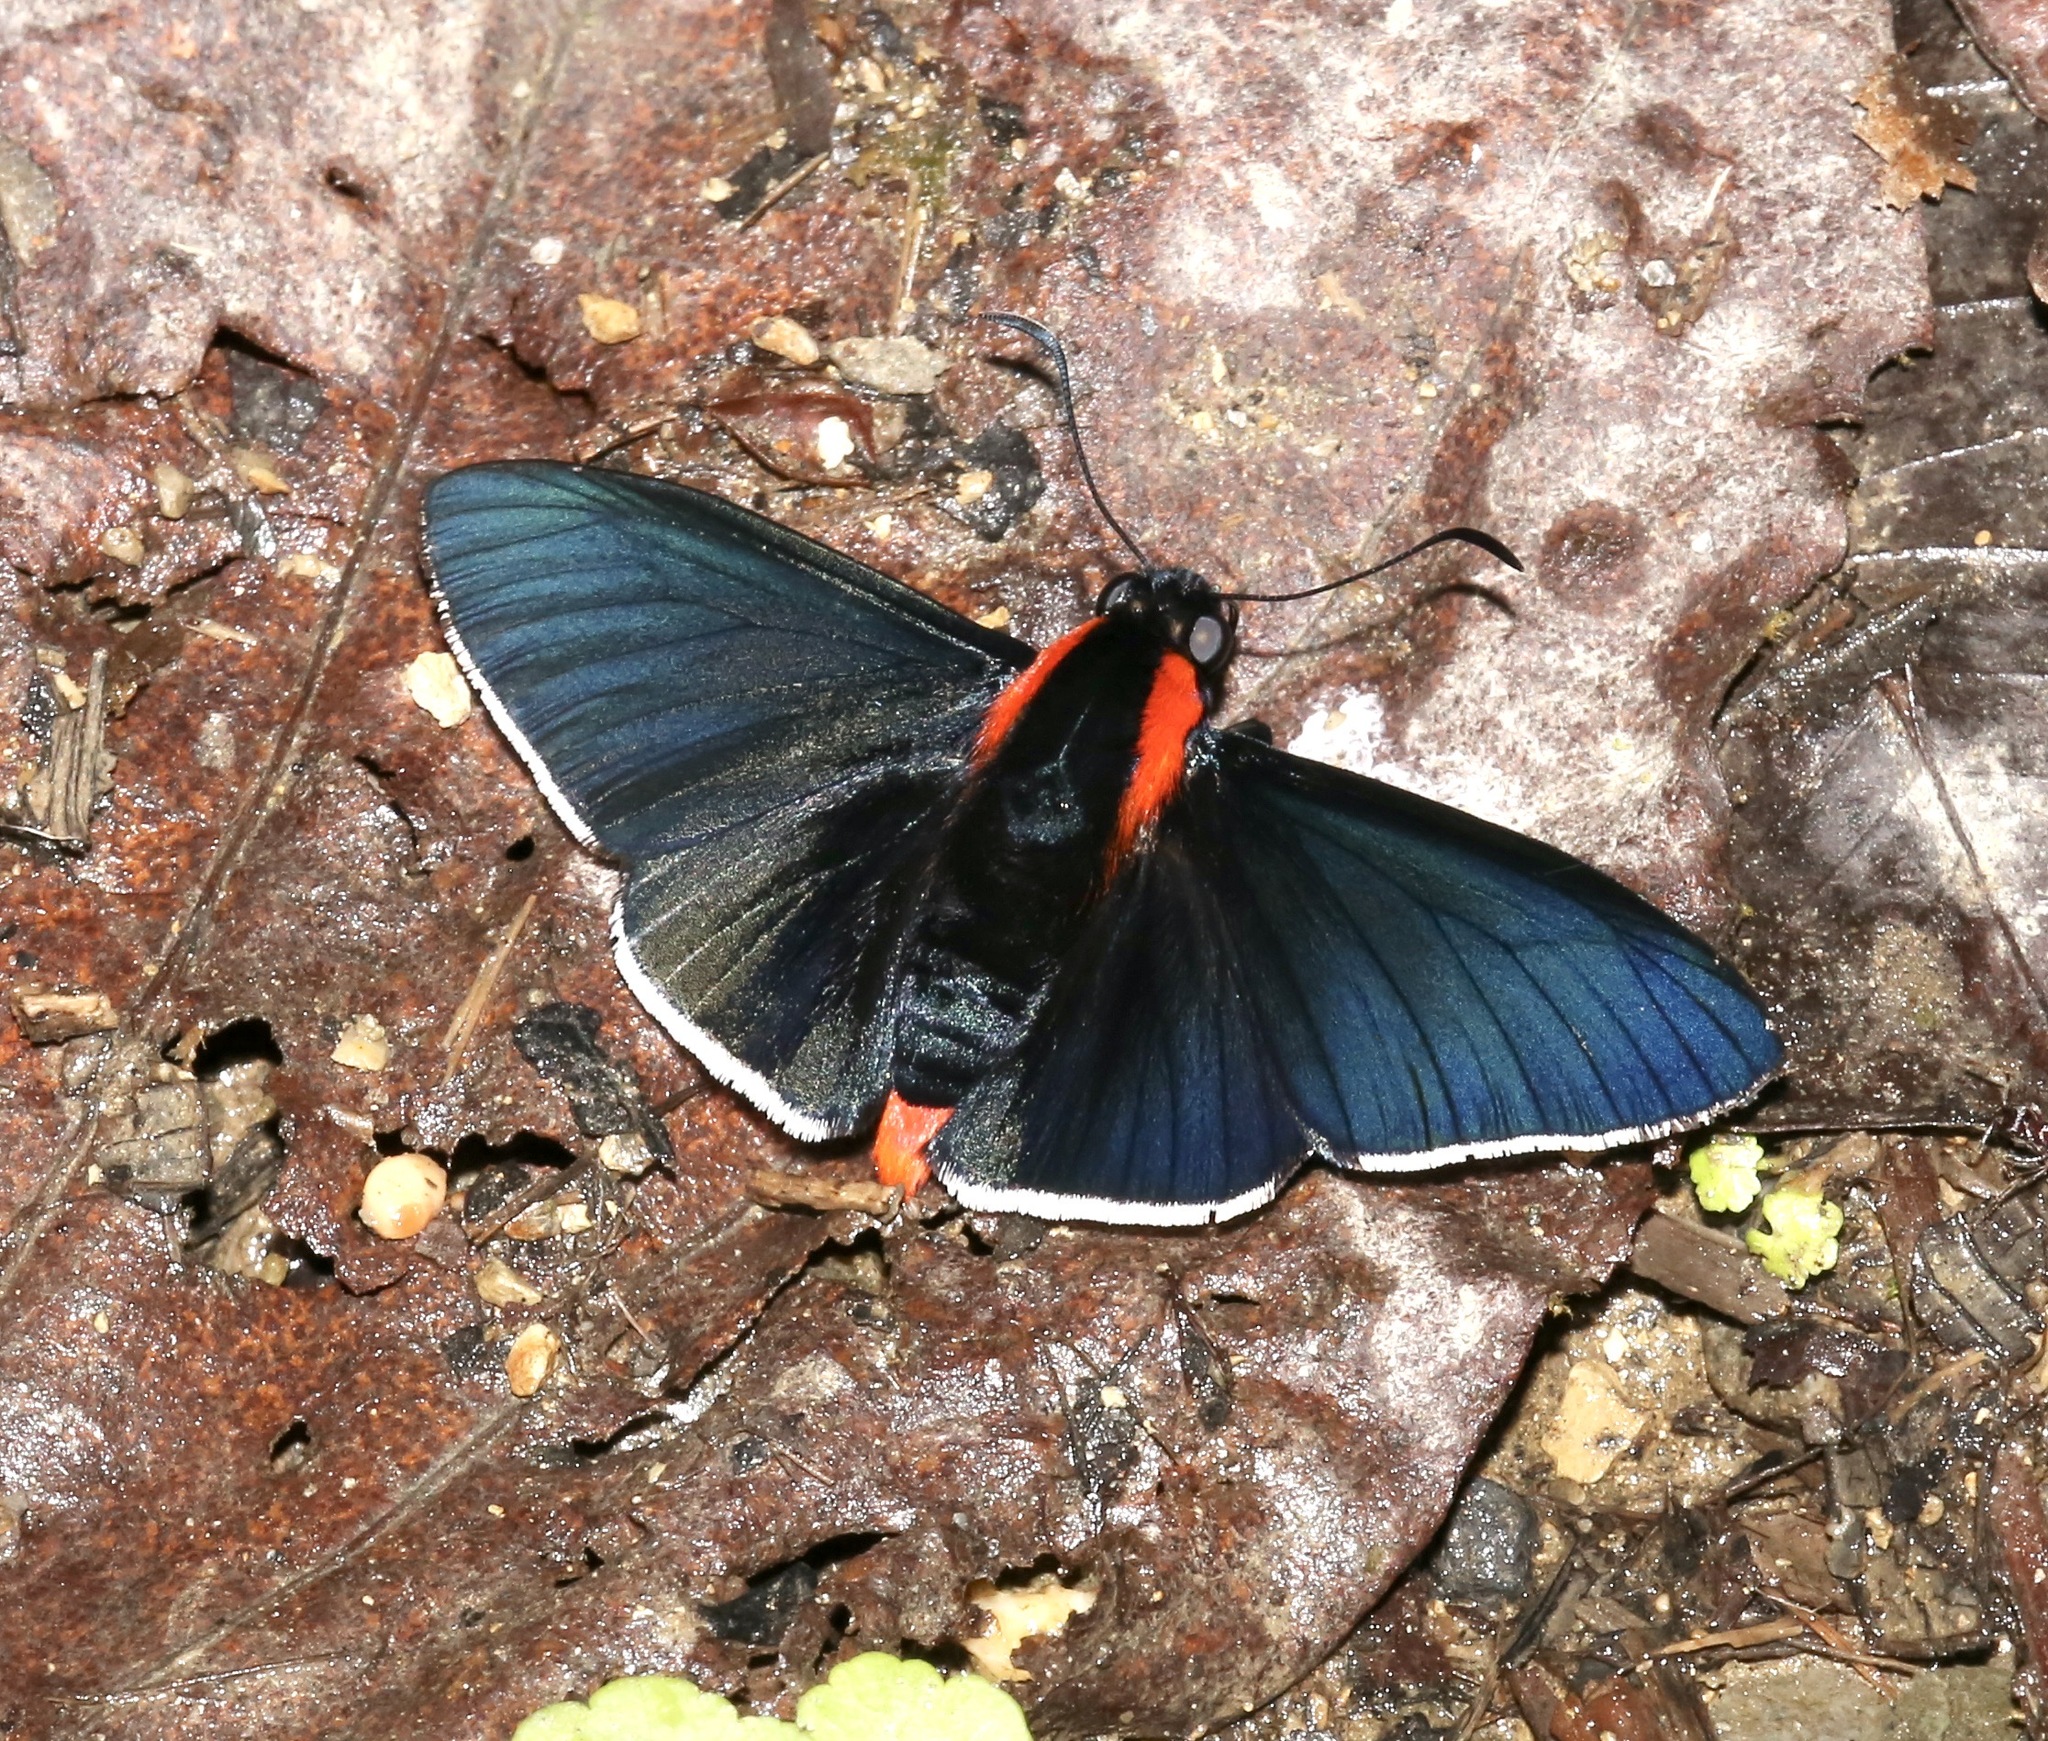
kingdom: Animalia
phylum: Arthropoda
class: Insecta
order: Lepidoptera
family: Hesperiidae
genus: Pyrrhopyge
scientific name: Pyrrhopyge papius
